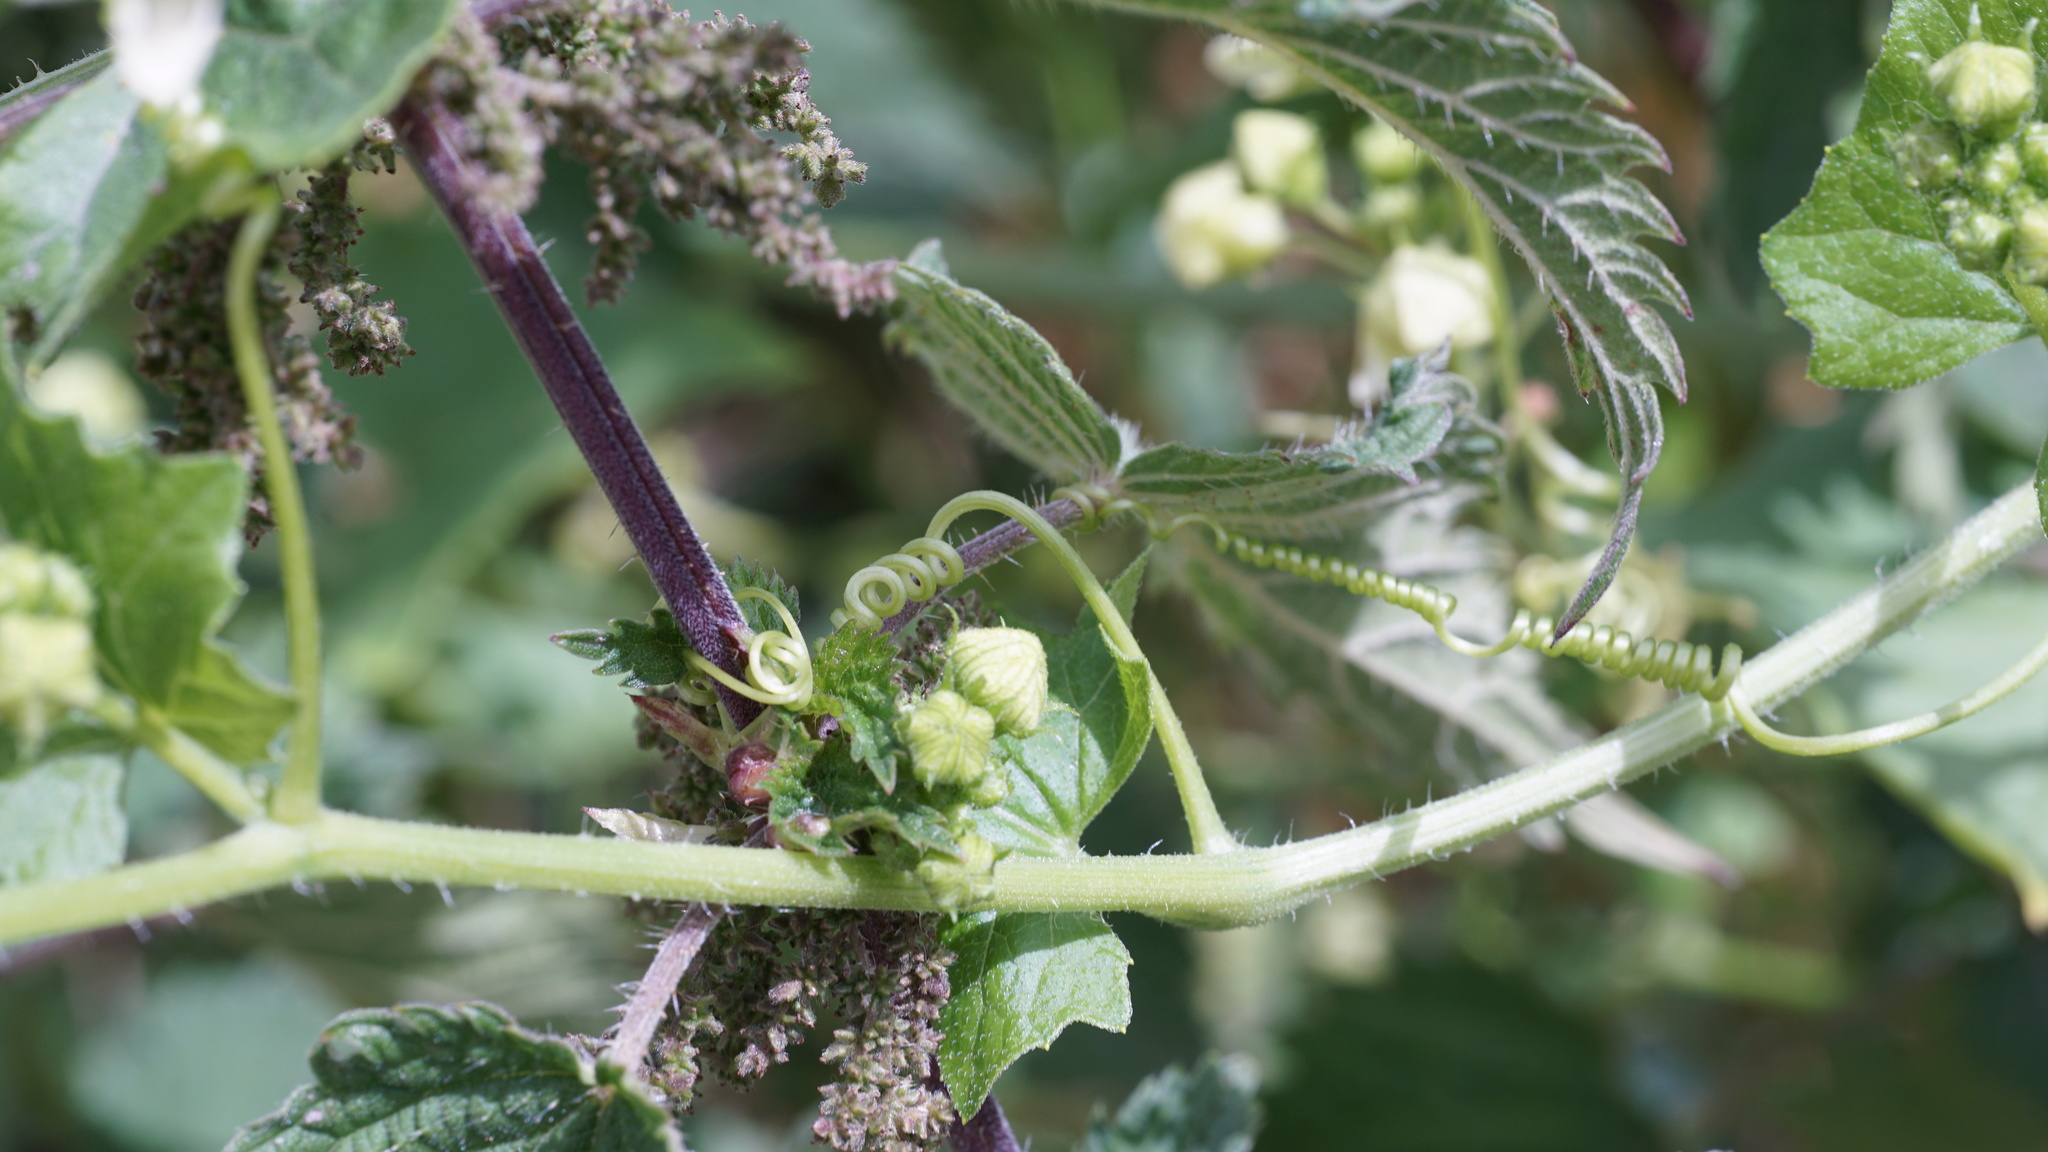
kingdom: Plantae
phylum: Tracheophyta
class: Magnoliopsida
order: Cucurbitales
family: Cucurbitaceae
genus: Bryonia
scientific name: Bryonia cretica
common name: Cretan bryony
